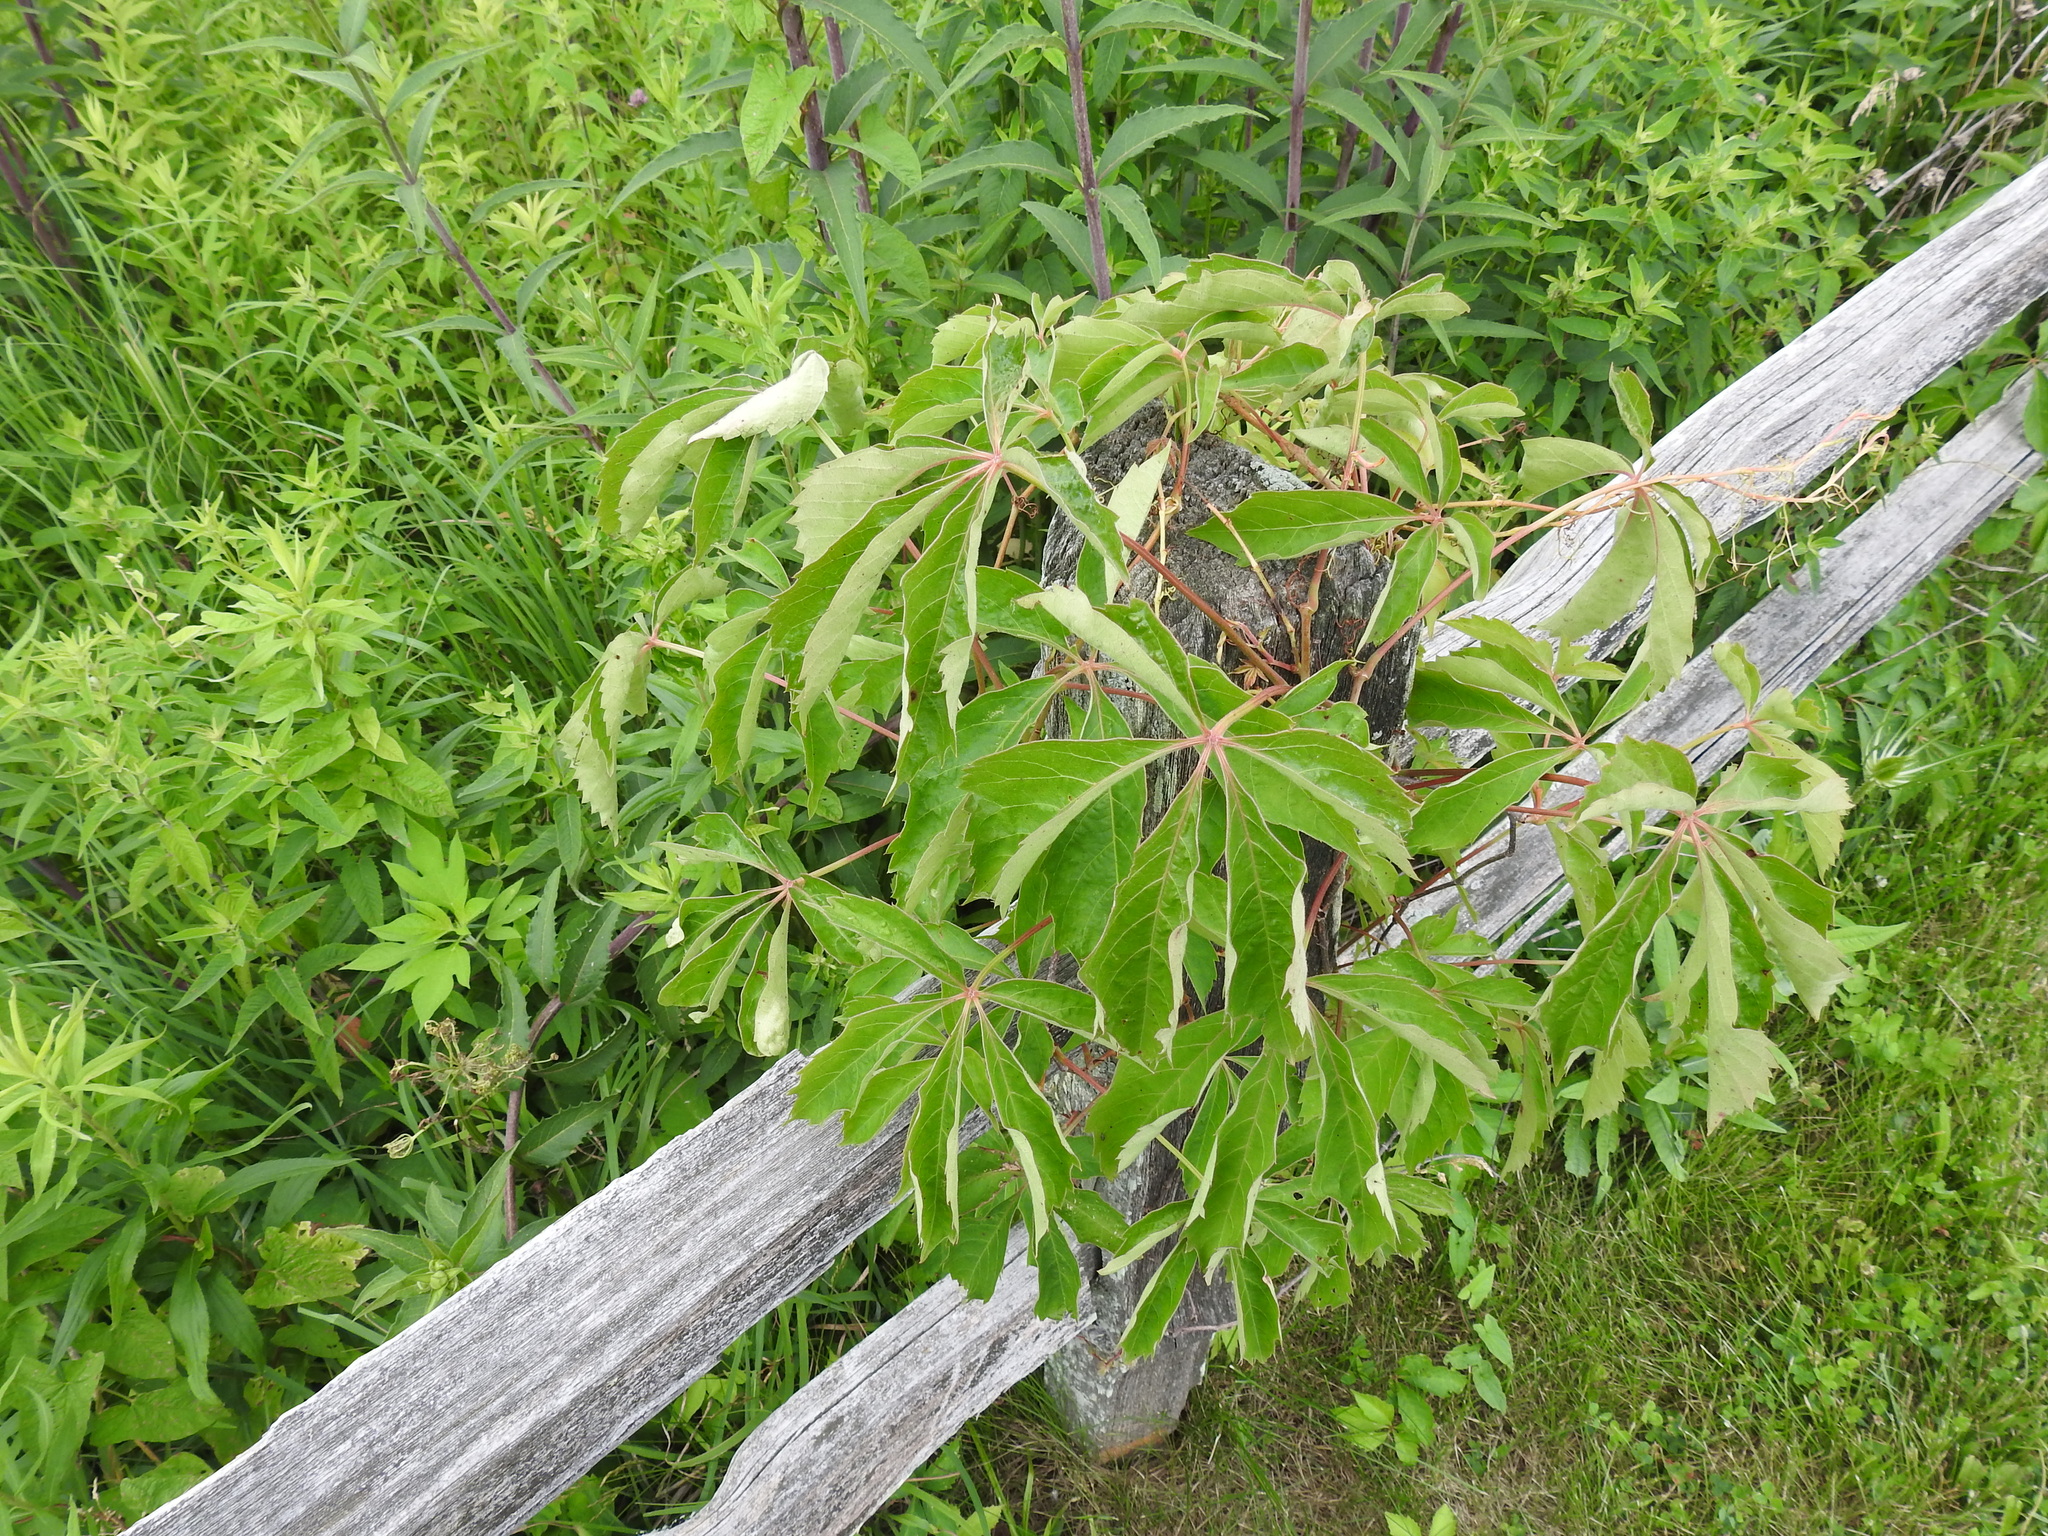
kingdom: Plantae
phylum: Tracheophyta
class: Magnoliopsida
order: Vitales
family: Vitaceae
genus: Parthenocissus
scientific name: Parthenocissus quinquefolia
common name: Virginia-creeper
